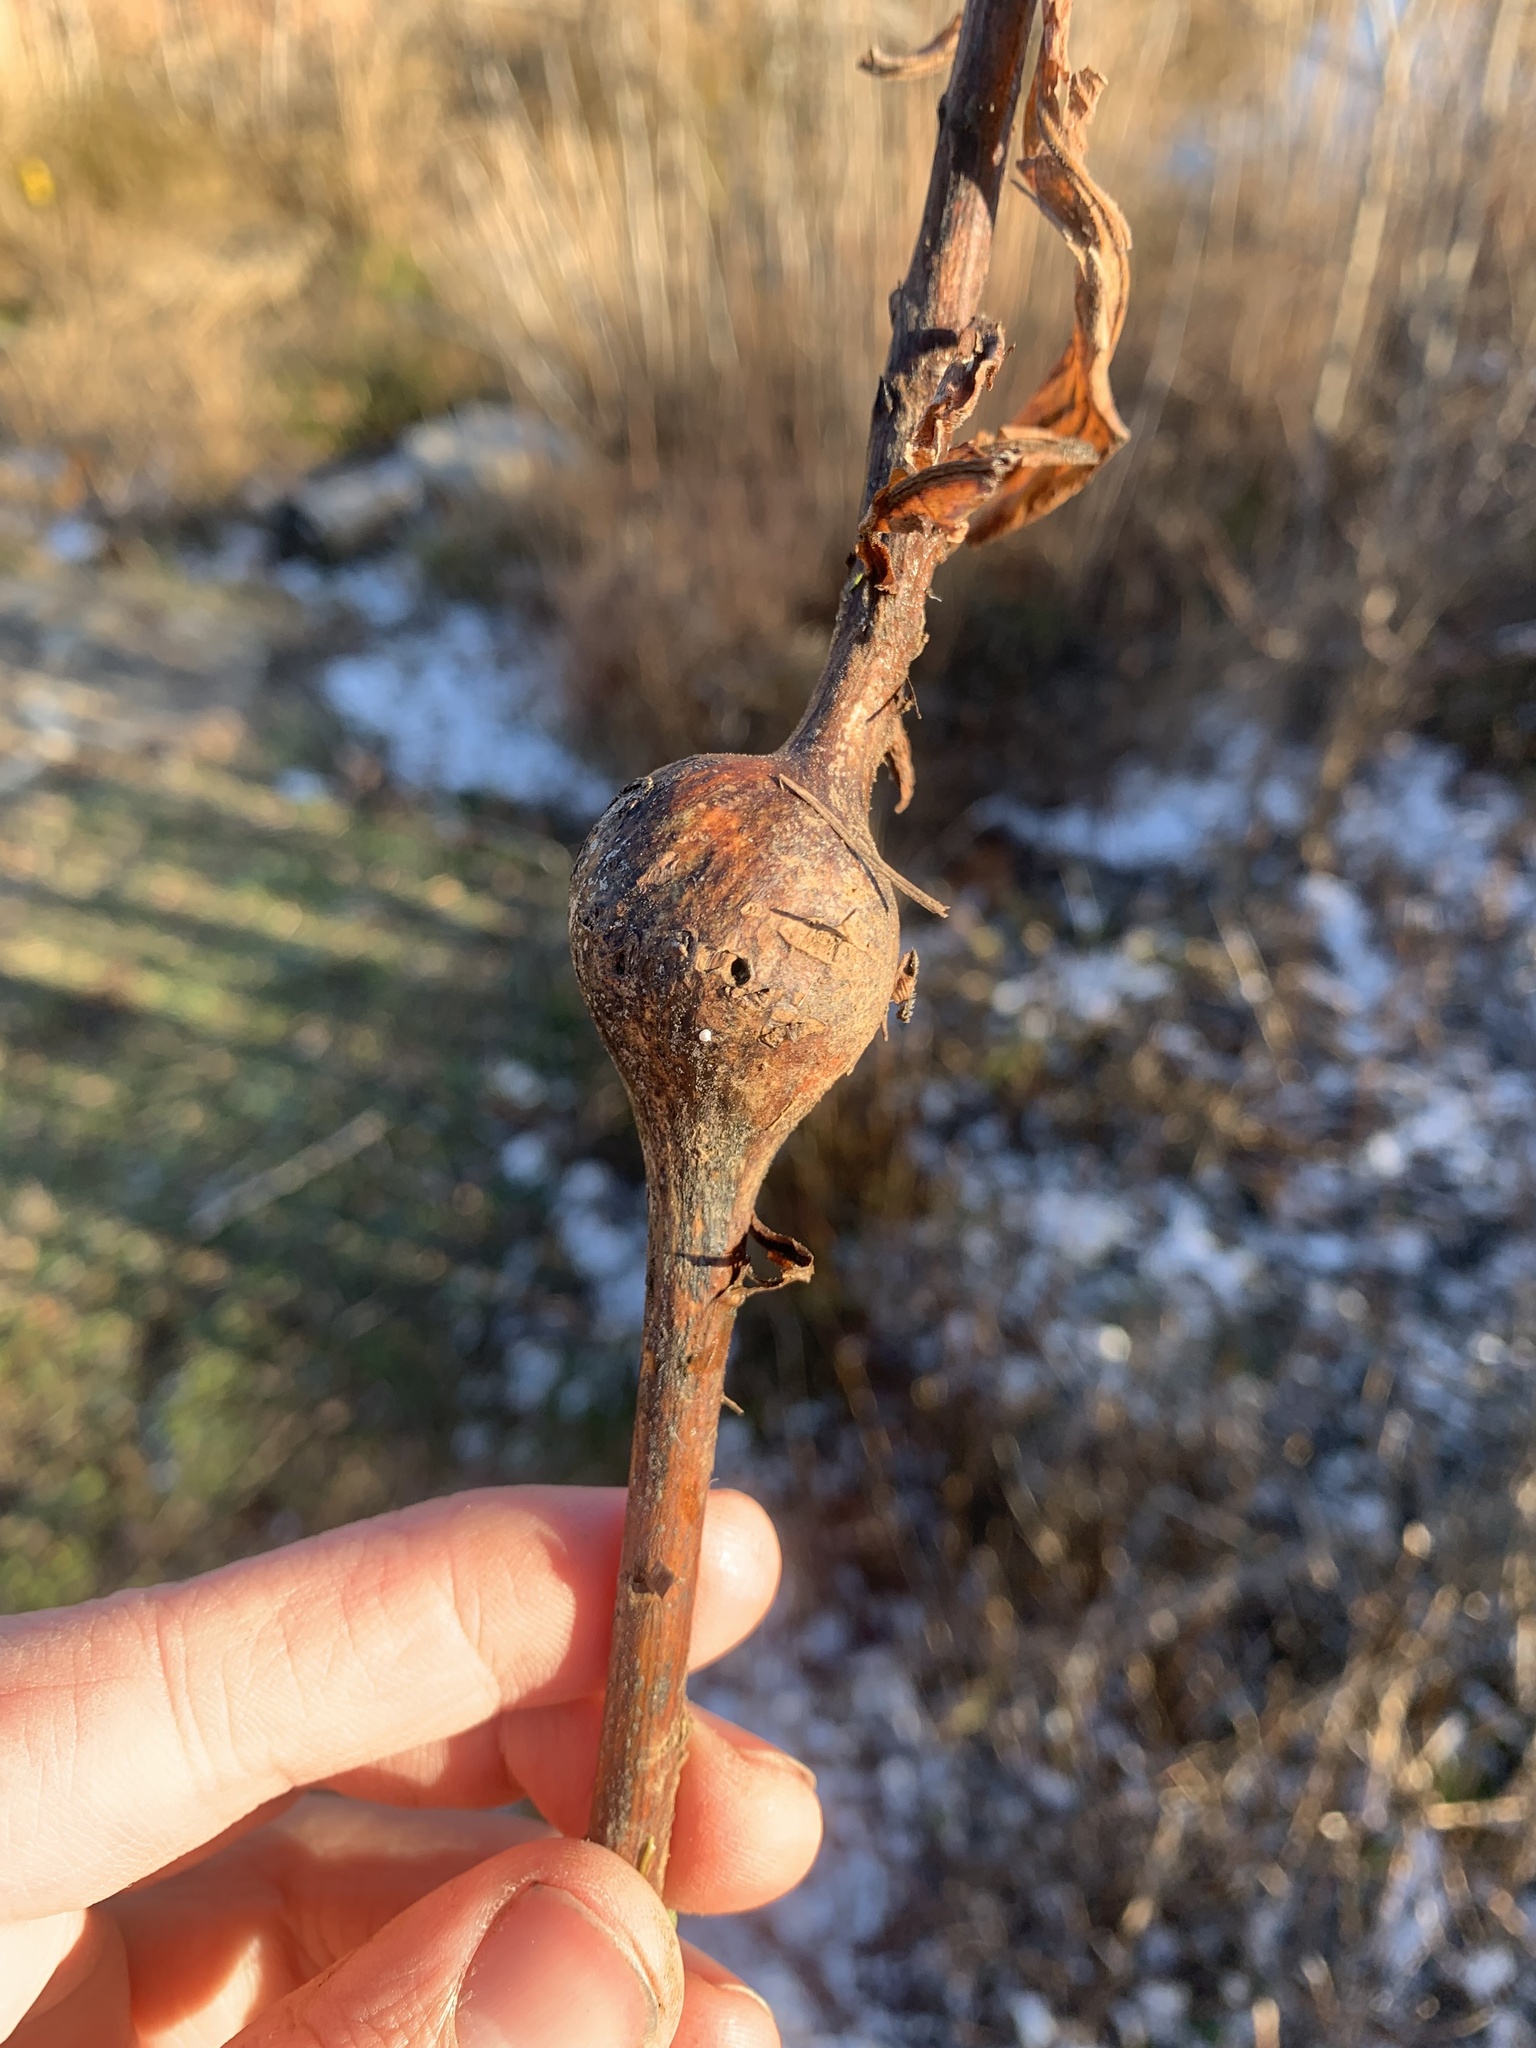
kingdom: Animalia
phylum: Arthropoda
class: Insecta
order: Diptera
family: Tephritidae
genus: Eurosta
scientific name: Eurosta solidaginis
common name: Goldenrod gall fly
